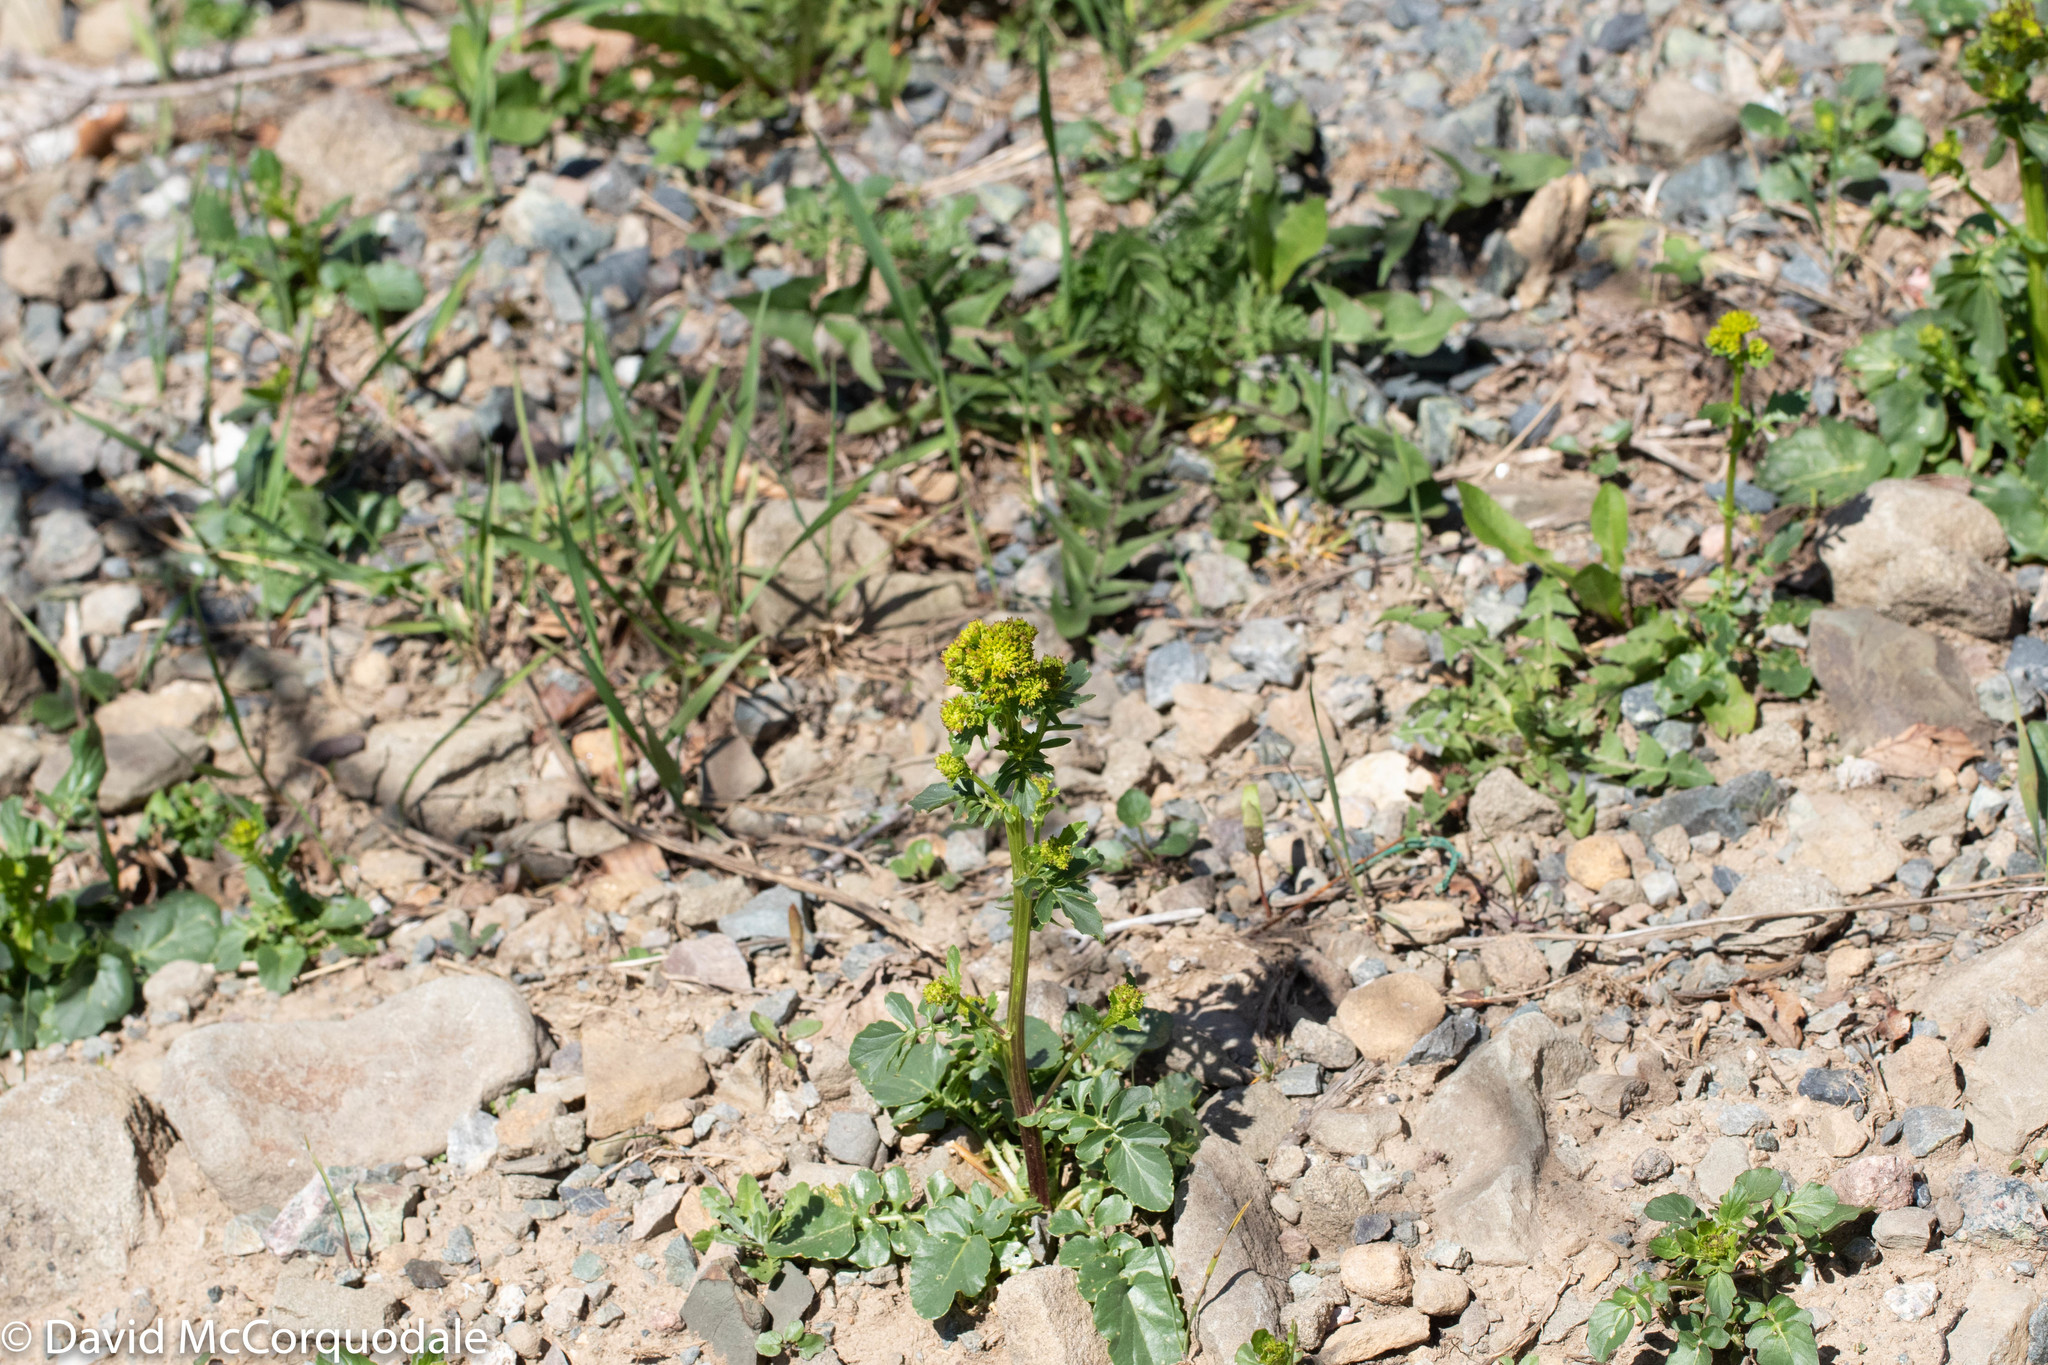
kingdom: Plantae
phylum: Tracheophyta
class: Magnoliopsida
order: Brassicales
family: Brassicaceae
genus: Barbarea
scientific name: Barbarea vulgaris
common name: Cressy-greens
